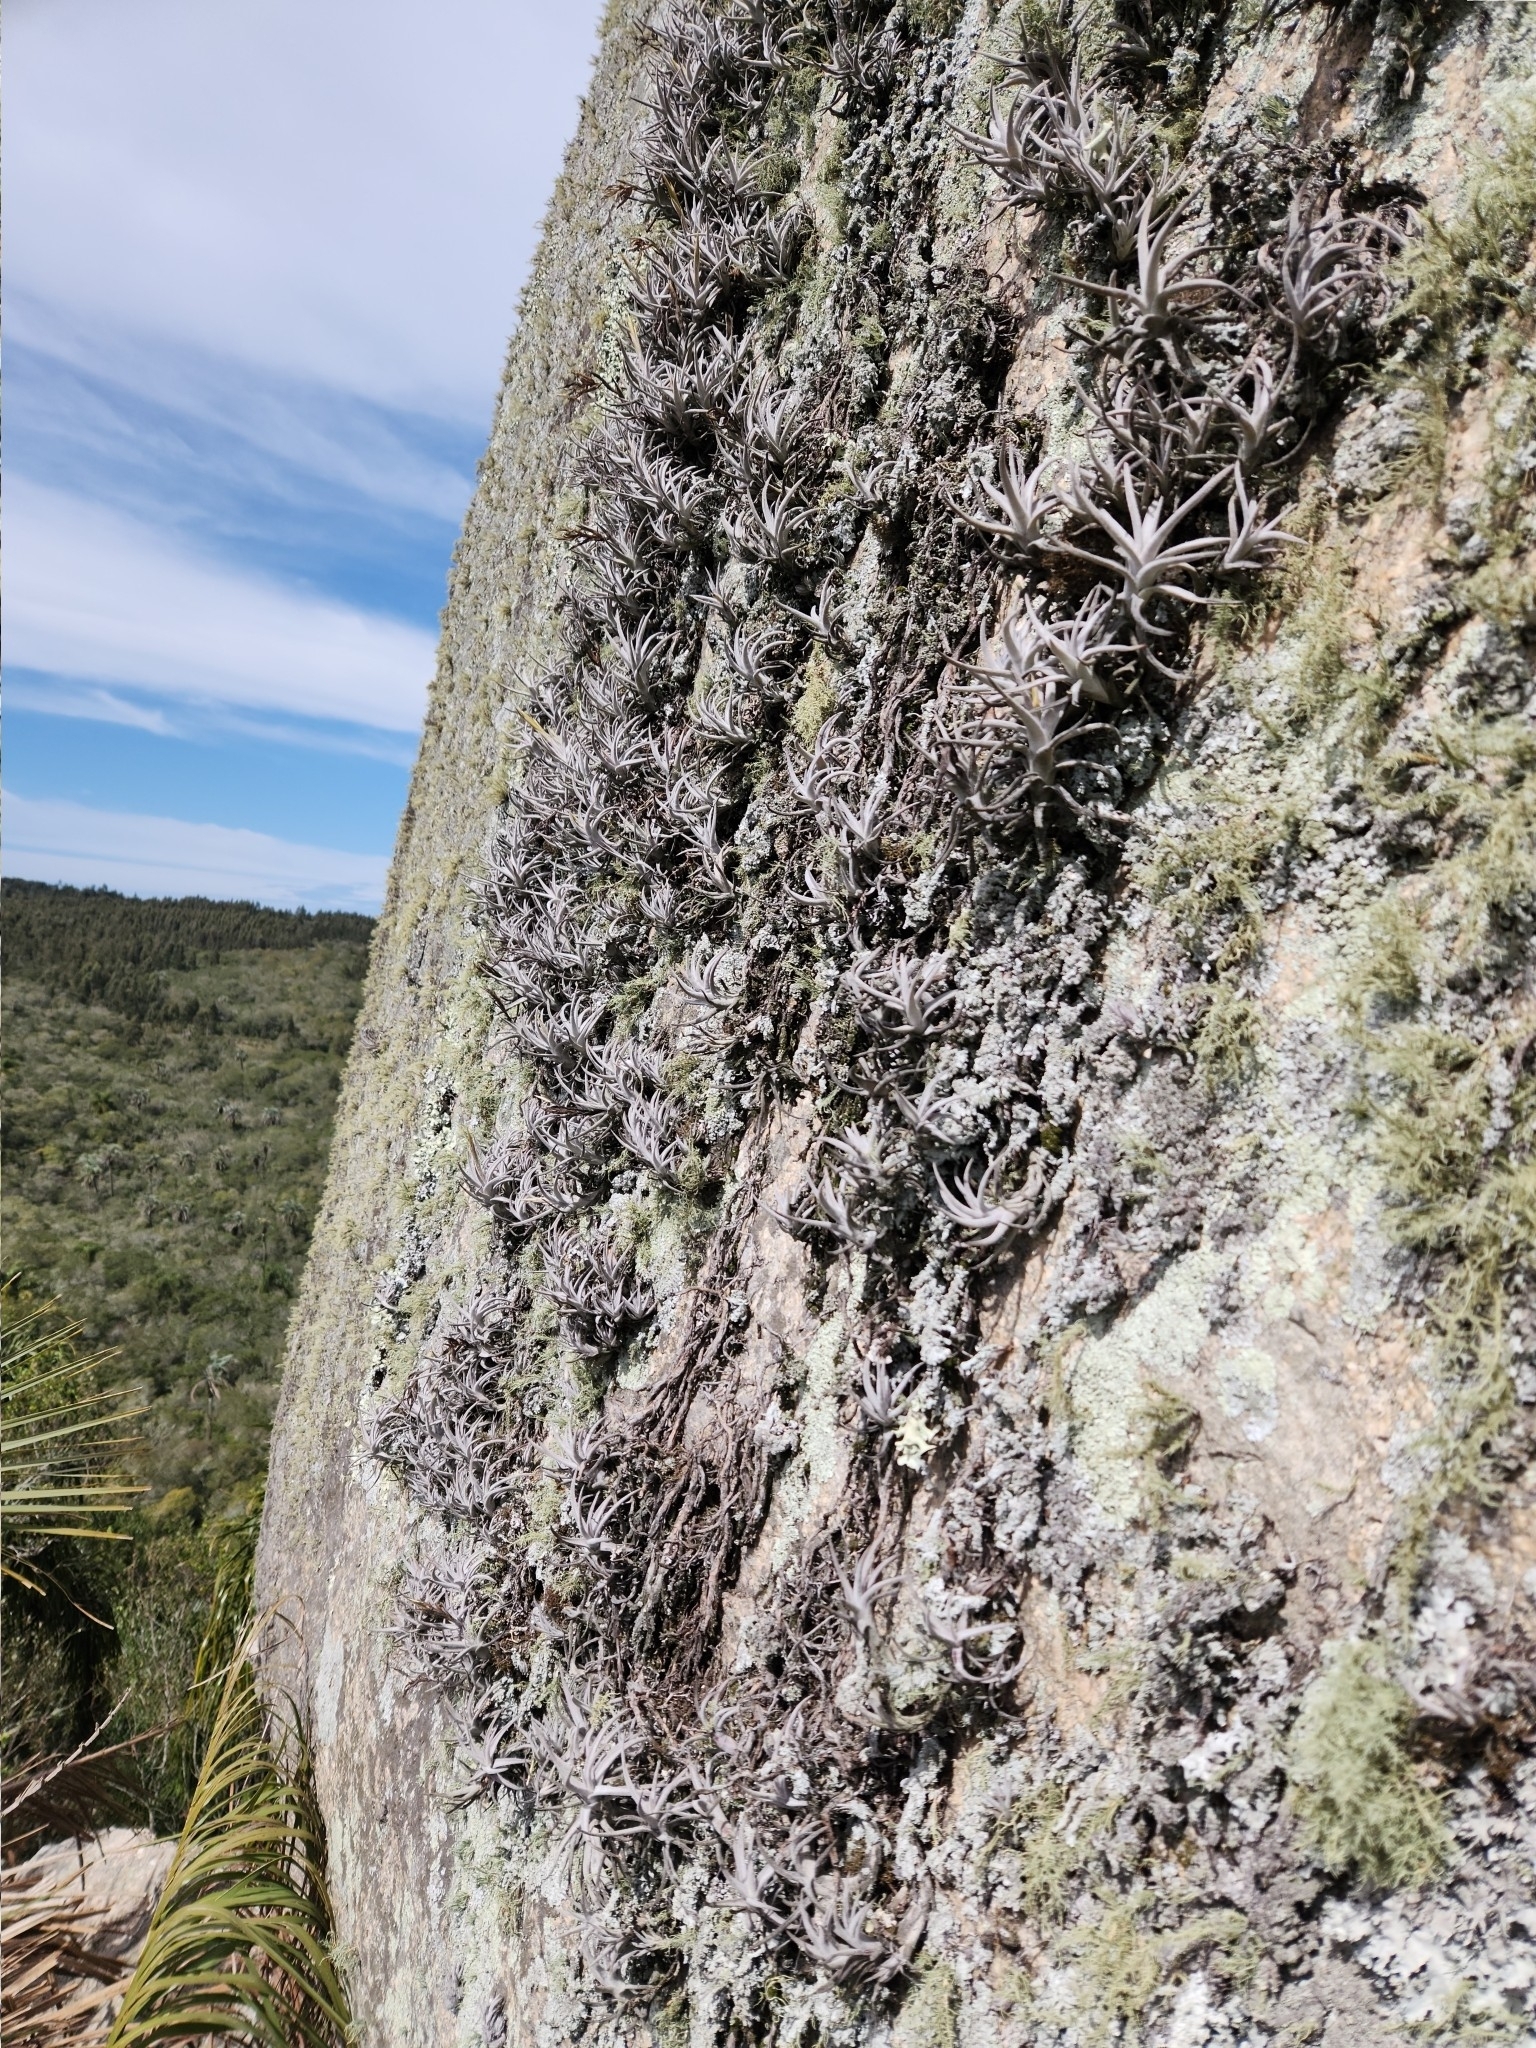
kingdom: Plantae
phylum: Tracheophyta
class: Liliopsida
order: Poales
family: Bromeliaceae
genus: Tillandsia
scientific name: Tillandsia arequitae
